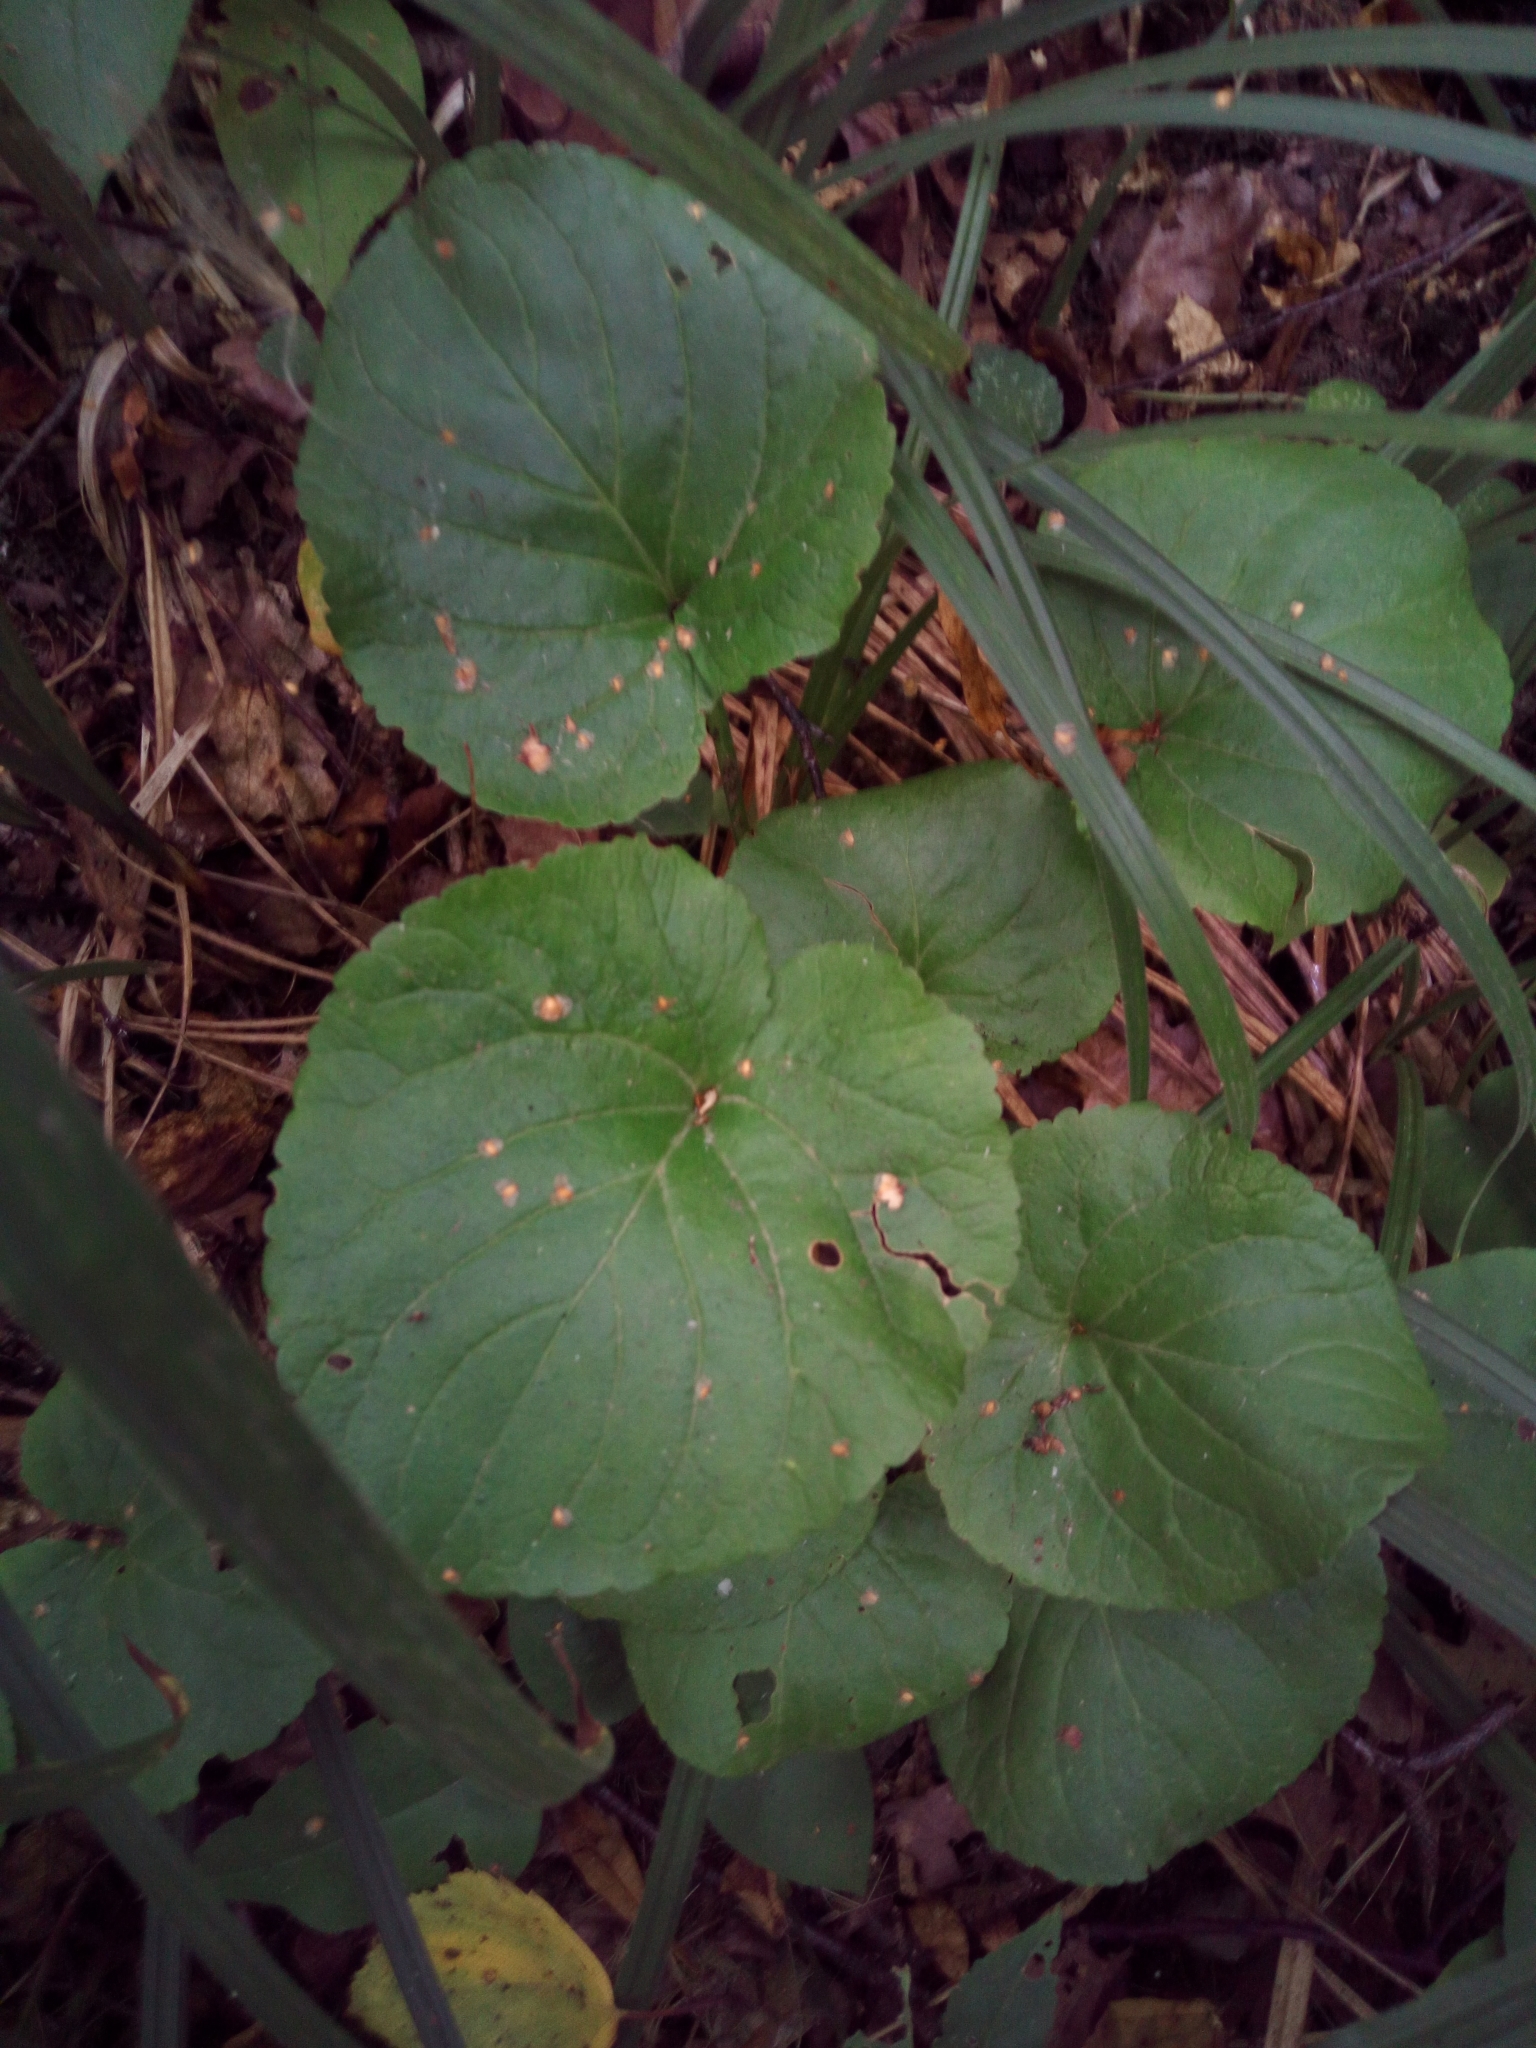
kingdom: Plantae
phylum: Tracheophyta
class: Magnoliopsida
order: Malpighiales
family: Violaceae
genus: Viola
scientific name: Viola odorata
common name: Sweet violet
